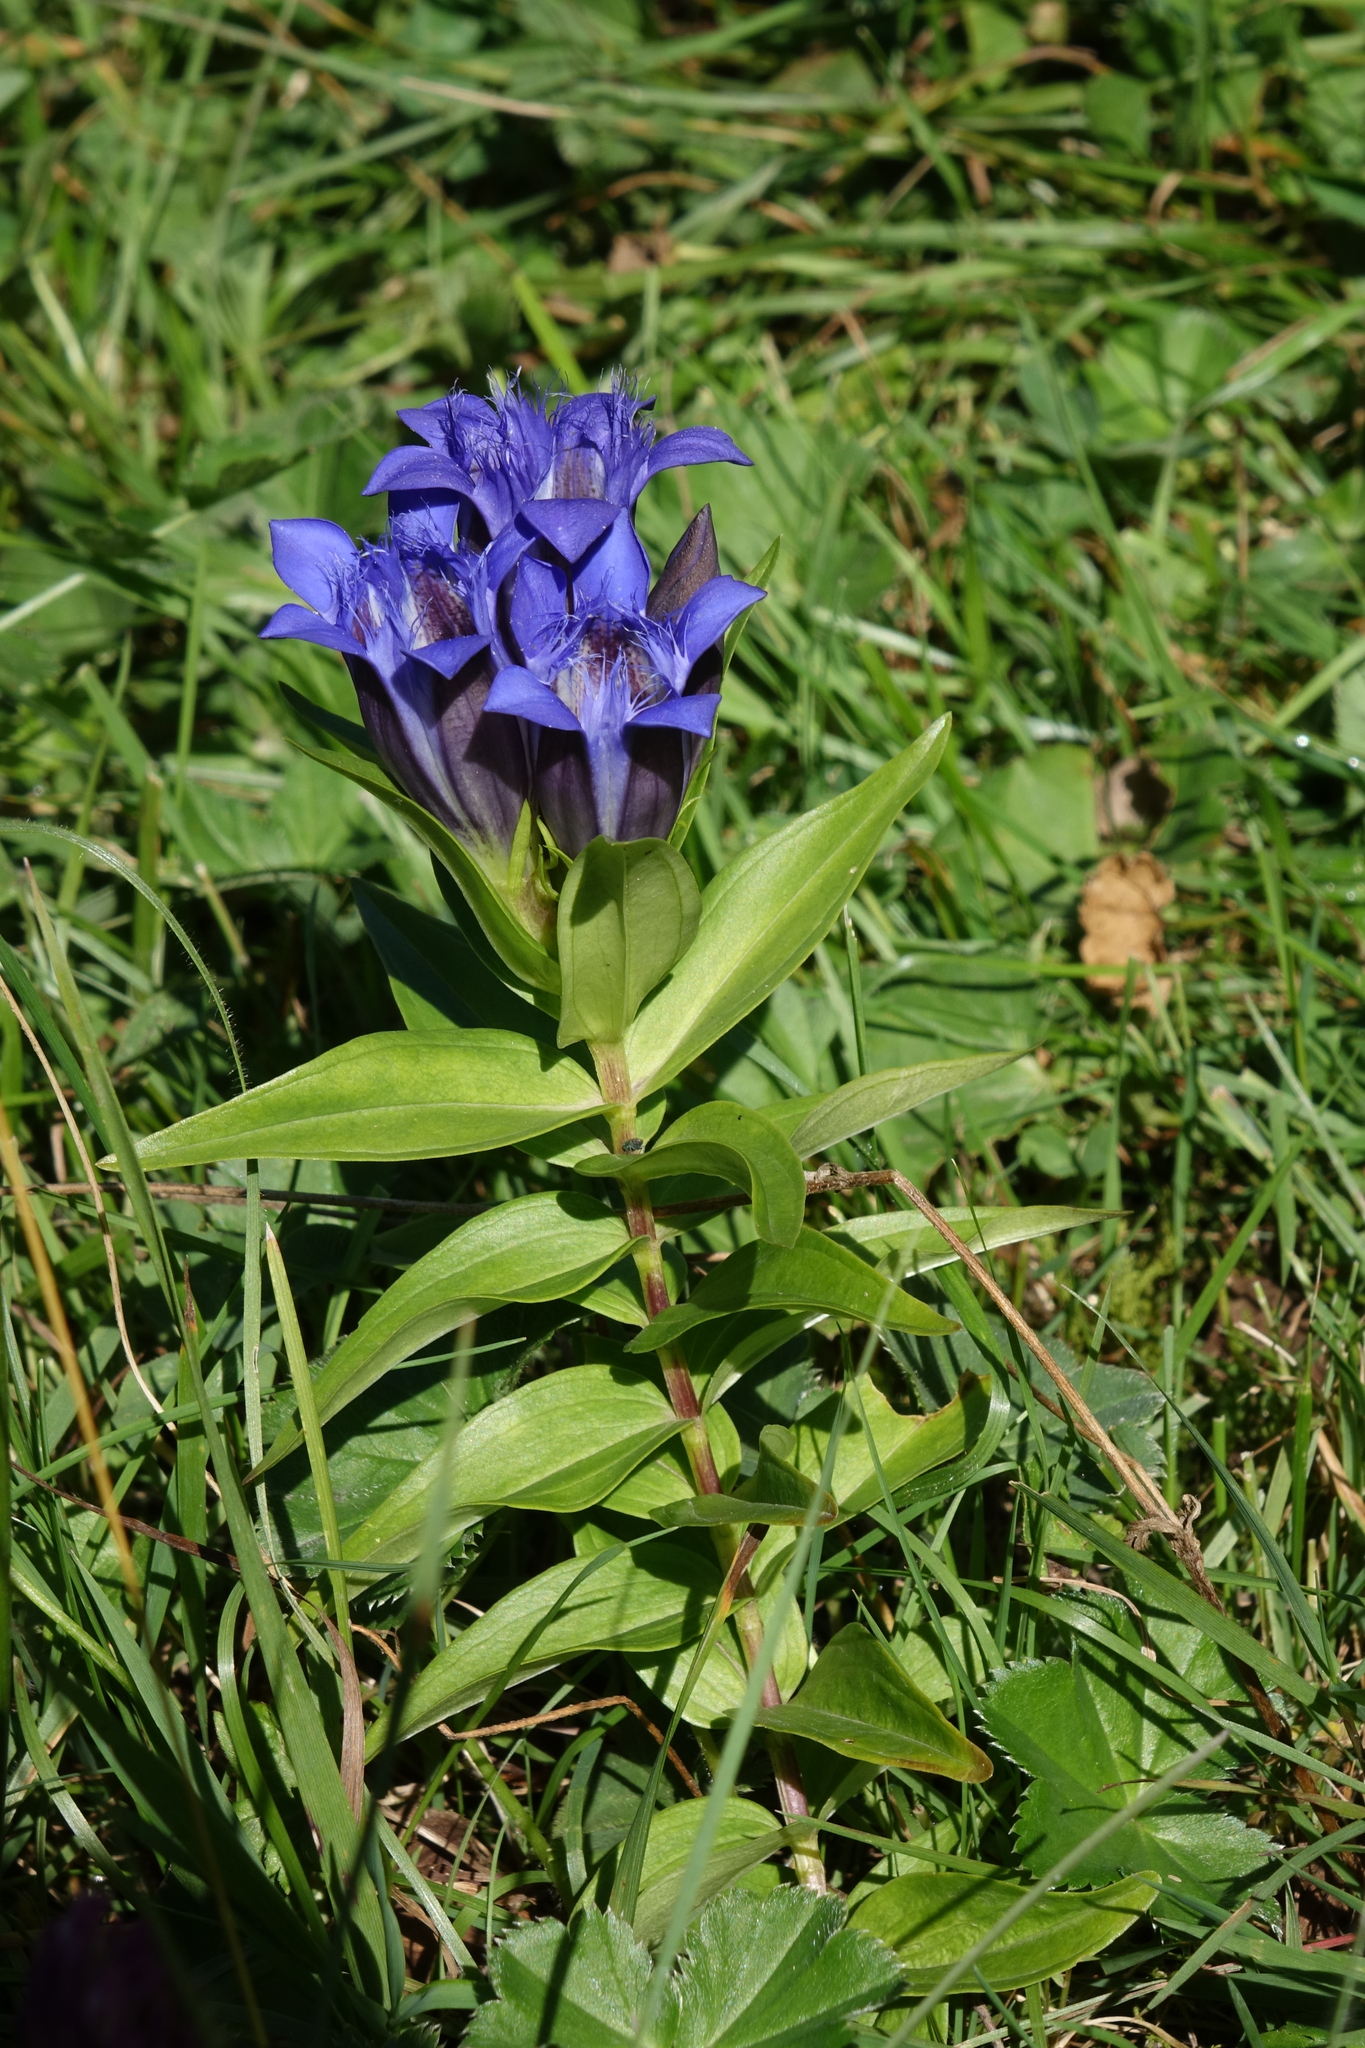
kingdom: Plantae
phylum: Tracheophyta
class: Magnoliopsida
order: Gentianales
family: Gentianaceae
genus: Gentiana
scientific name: Gentiana septemfida
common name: Crested gentian
